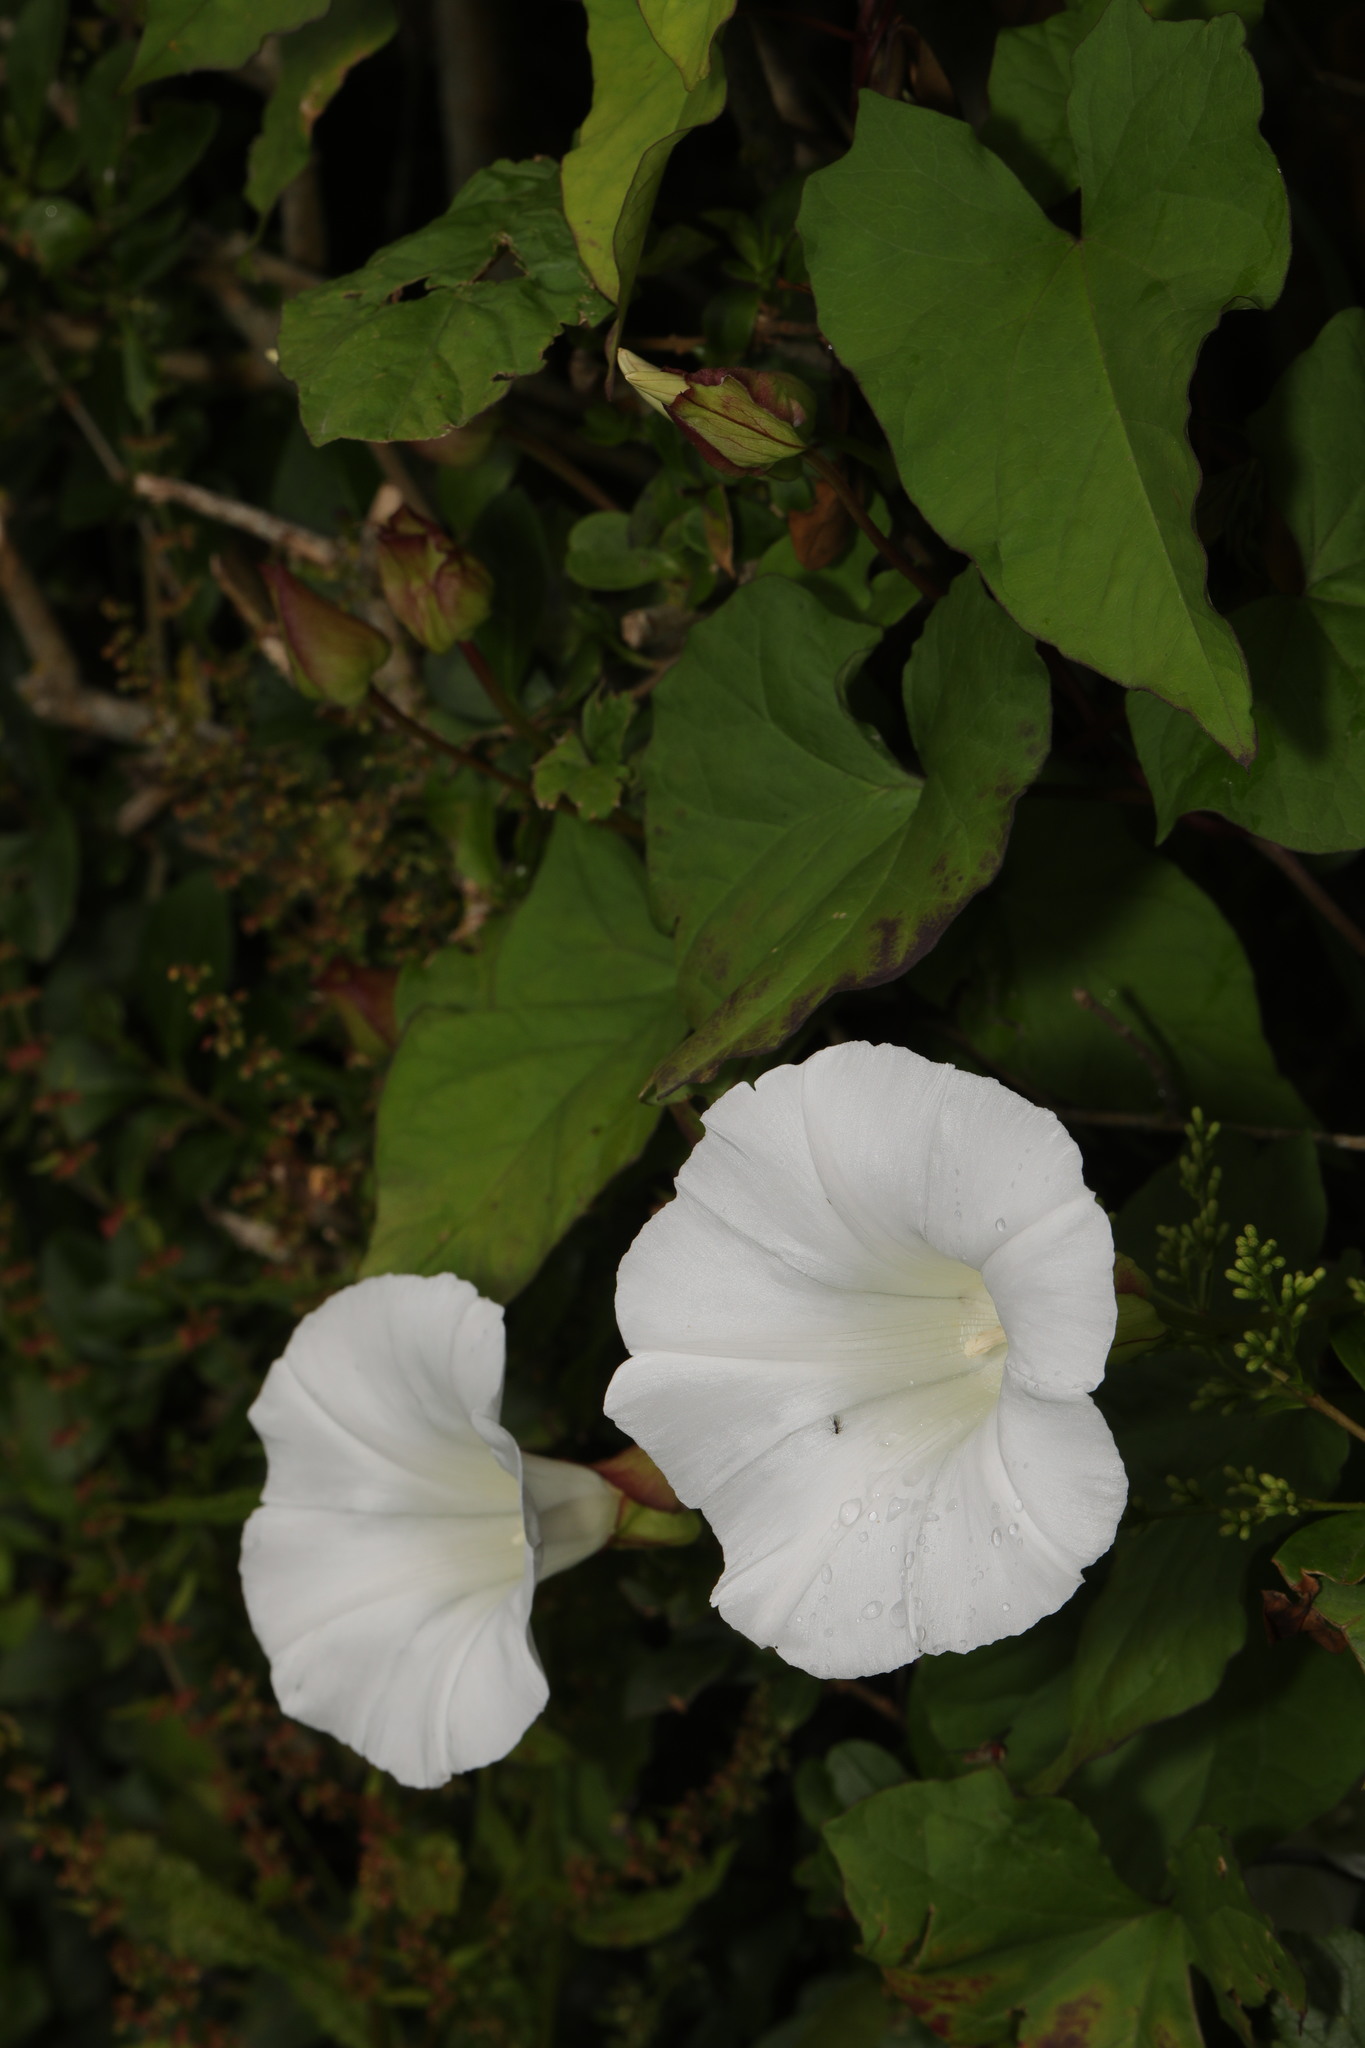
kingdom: Plantae
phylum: Tracheophyta
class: Magnoliopsida
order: Solanales
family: Convolvulaceae
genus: Calystegia
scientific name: Calystegia silvatica
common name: Large bindweed
